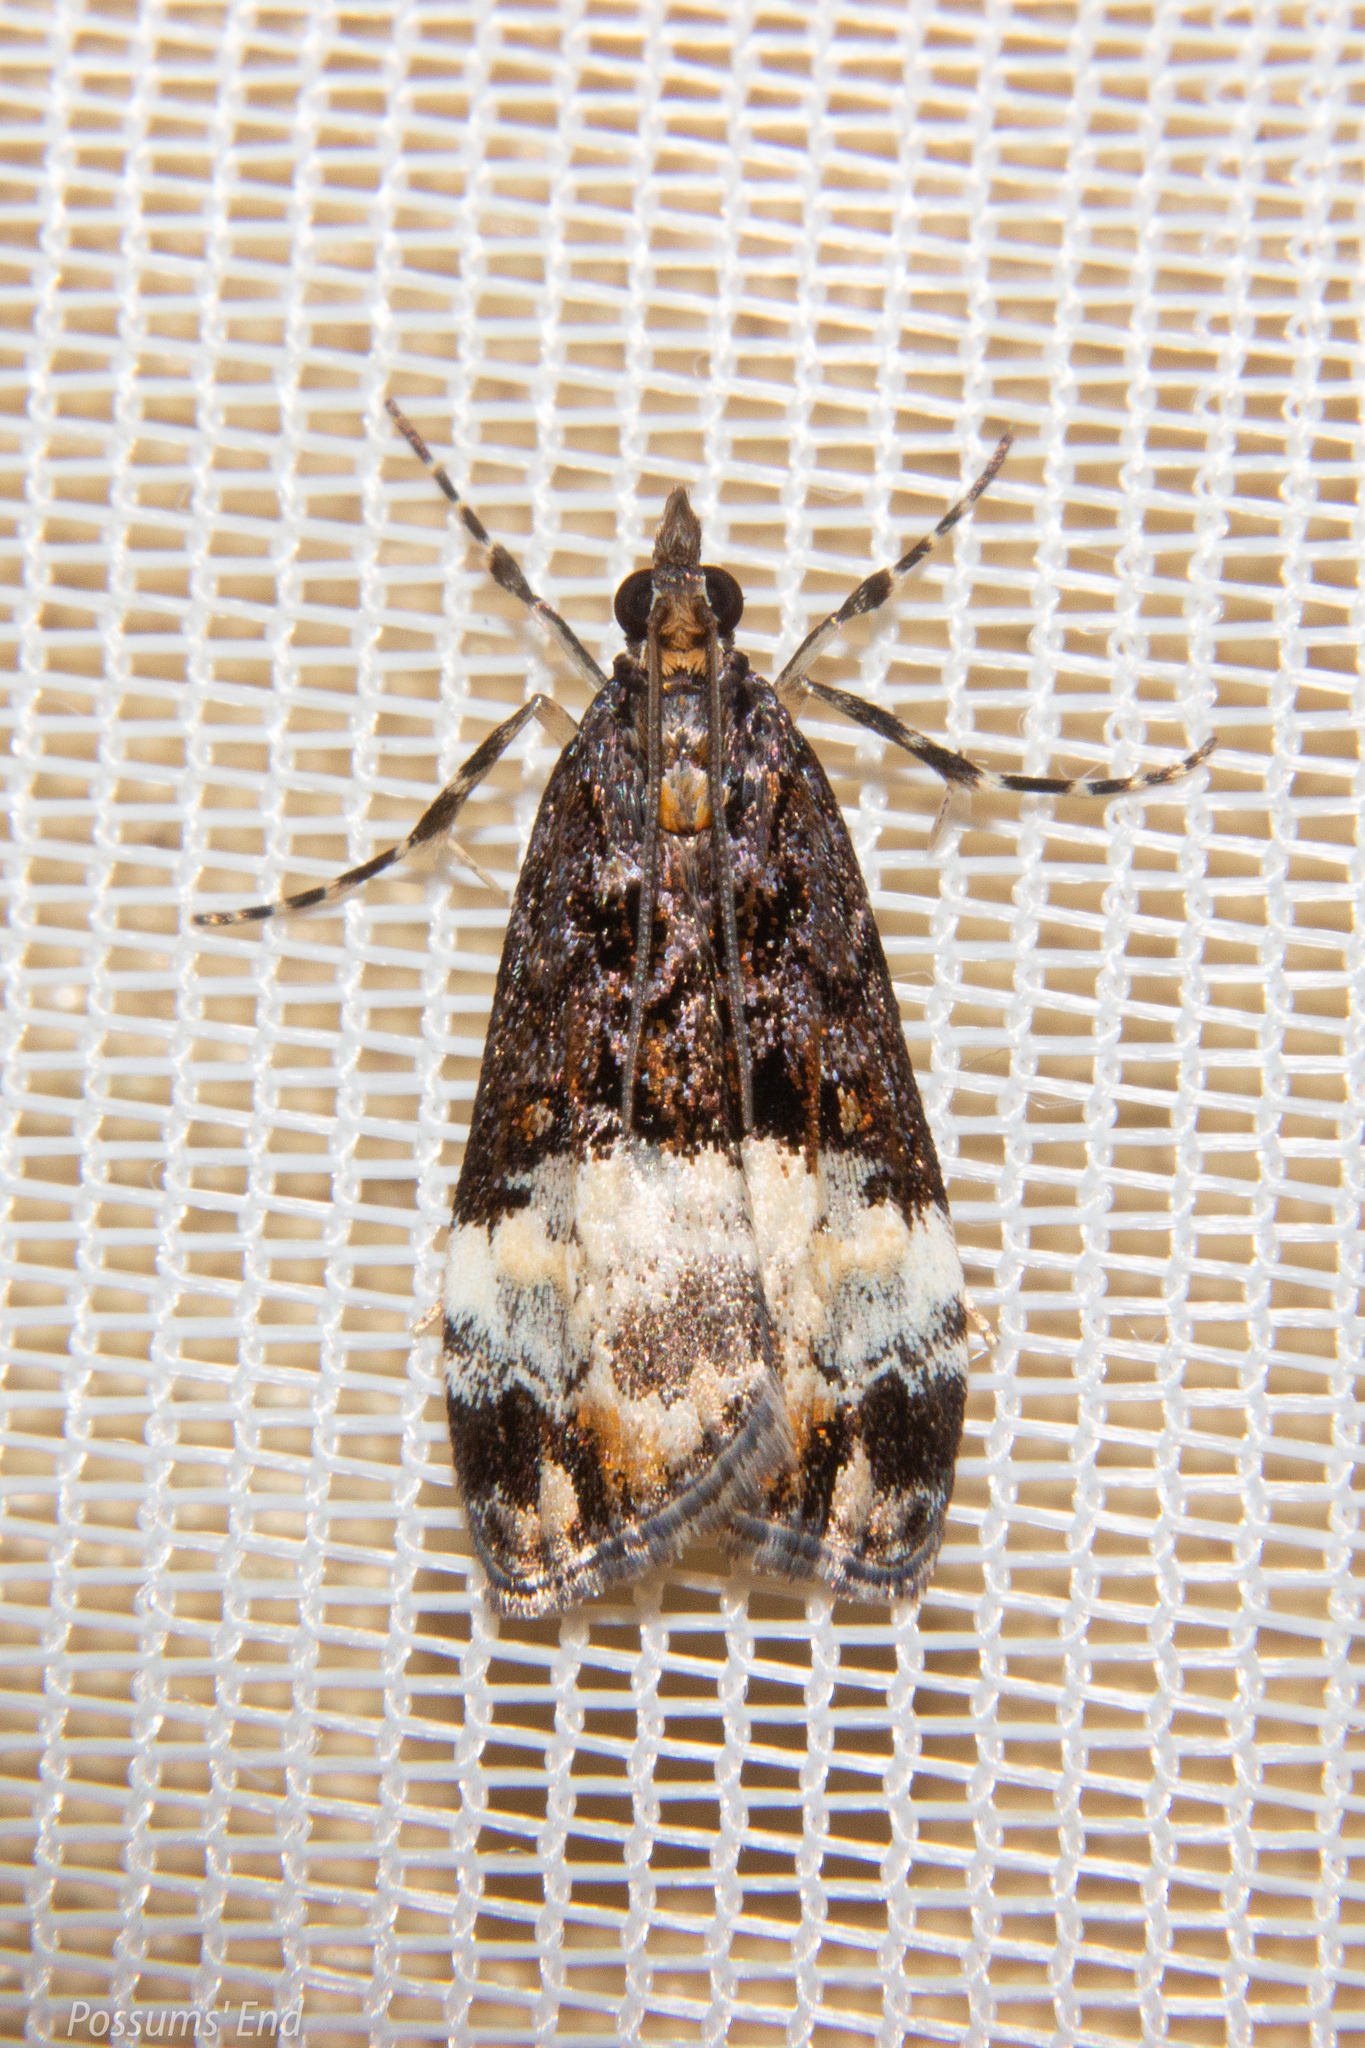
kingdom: Animalia
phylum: Arthropoda
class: Insecta
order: Lepidoptera
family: Crambidae
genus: Scoparia
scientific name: Scoparia minusculalis
